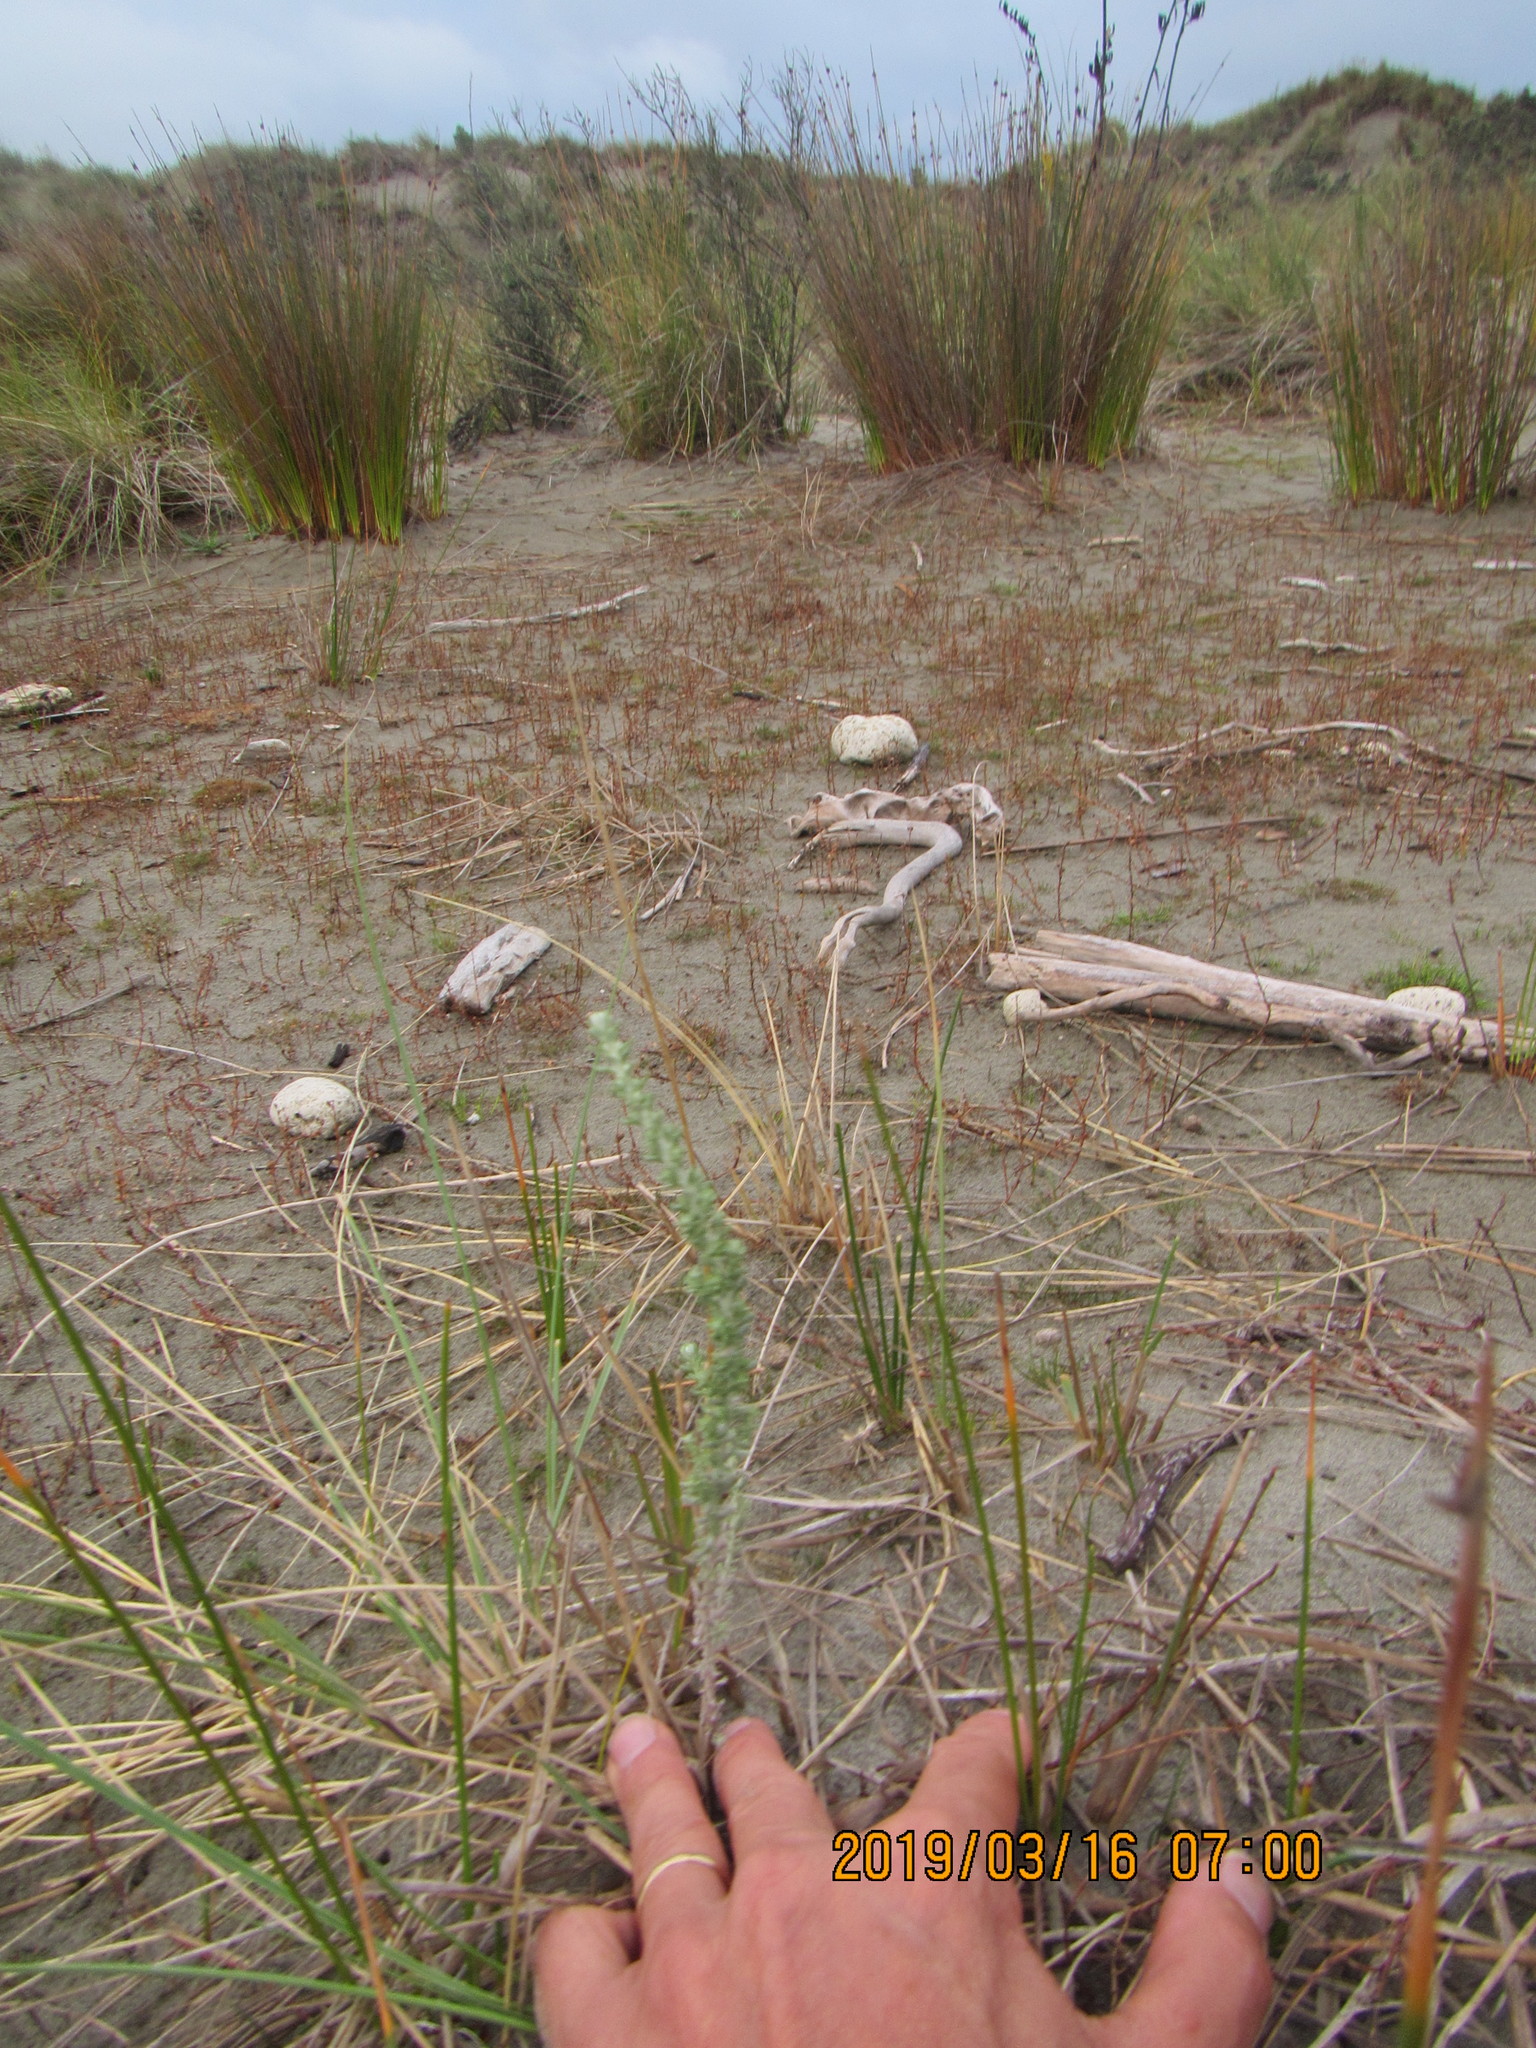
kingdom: Plantae
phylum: Tracheophyta
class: Magnoliopsida
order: Asterales
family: Asteraceae
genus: Ozothamnus
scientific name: Ozothamnus leptophyllus
